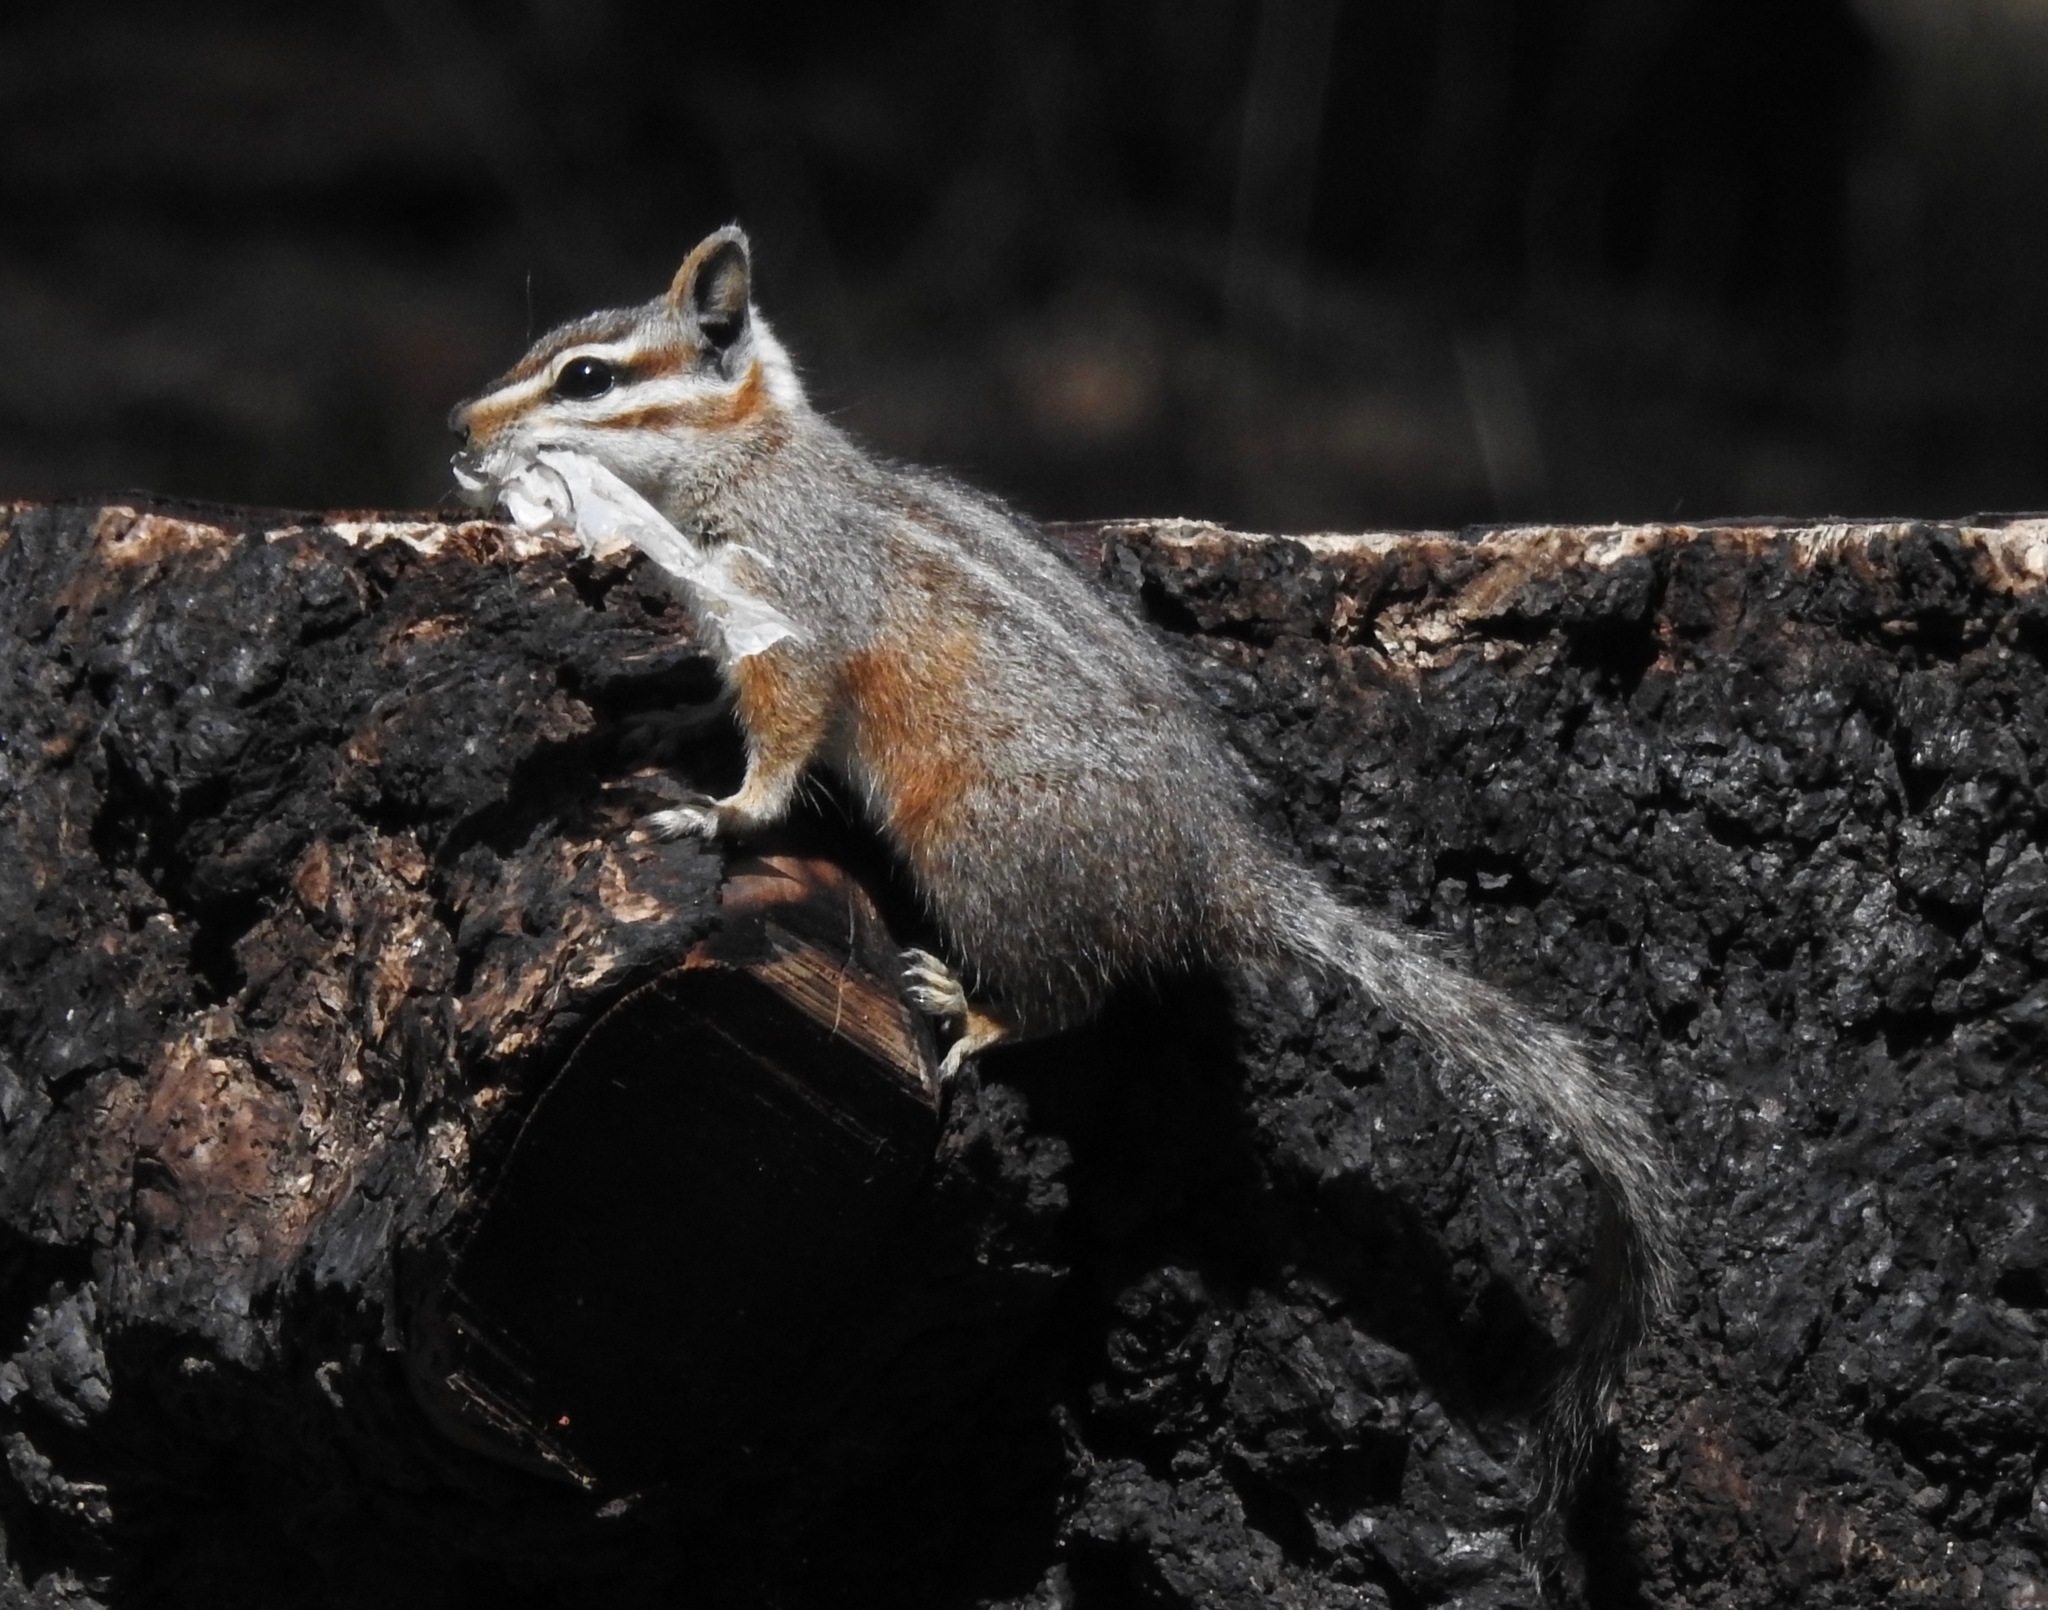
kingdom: Animalia
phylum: Chordata
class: Mammalia
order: Rodentia
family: Sciuridae
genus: Tamias
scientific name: Tamias dorsalis
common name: Cliff chipmunk
